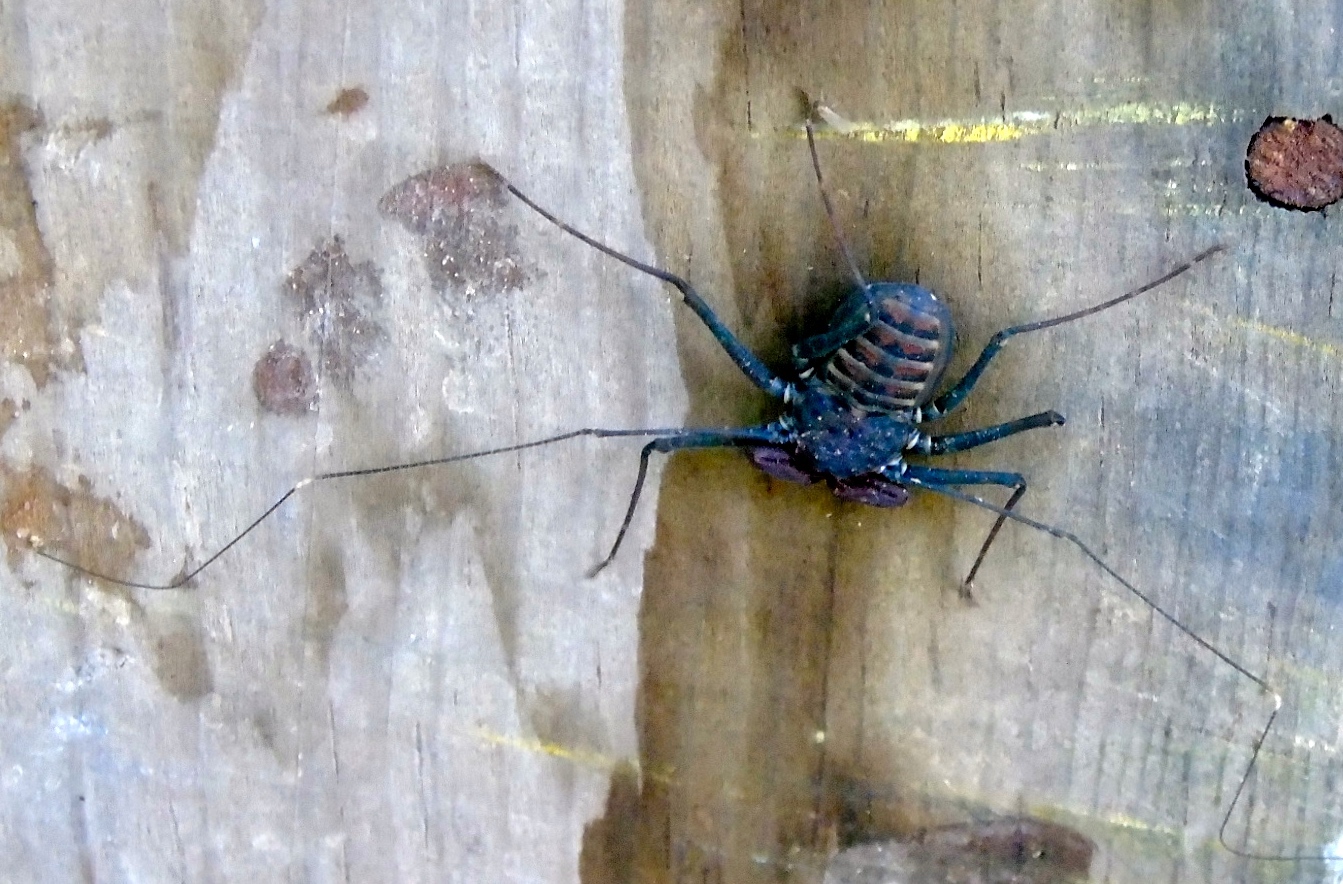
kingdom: Animalia
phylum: Arthropoda
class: Arachnida
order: Amblypygi
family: Phrynidae
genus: Phrynus
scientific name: Phrynus operculatus
